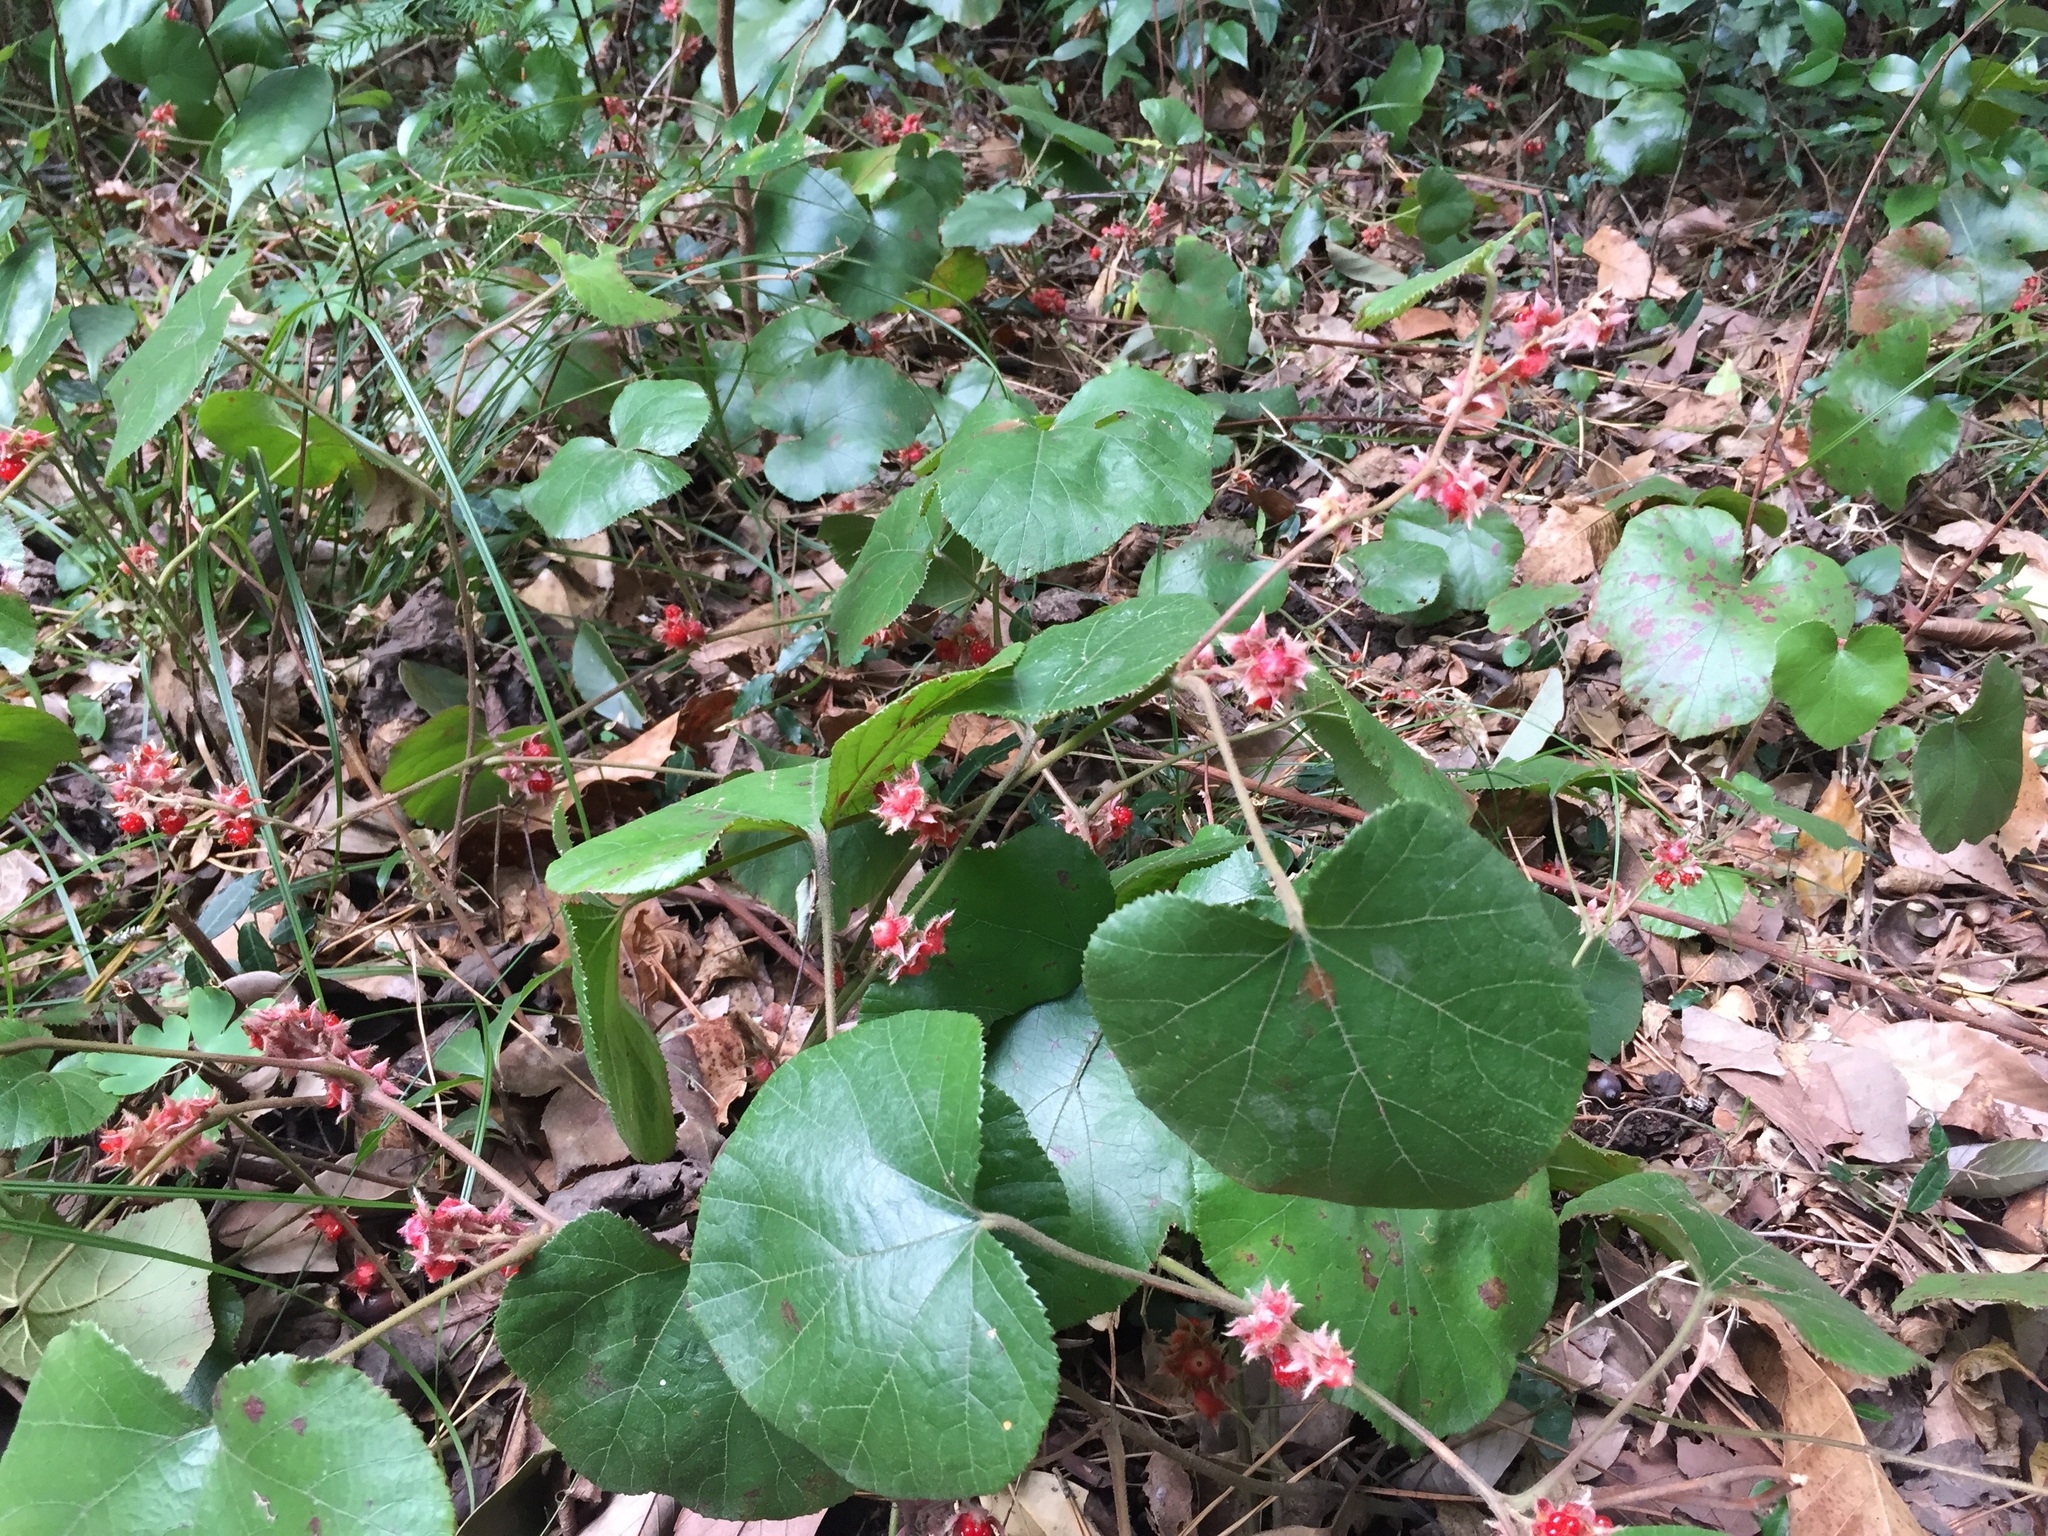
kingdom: Plantae
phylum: Tracheophyta
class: Magnoliopsida
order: Rosales
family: Rosaceae
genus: Rubus
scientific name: Rubus buergeri
